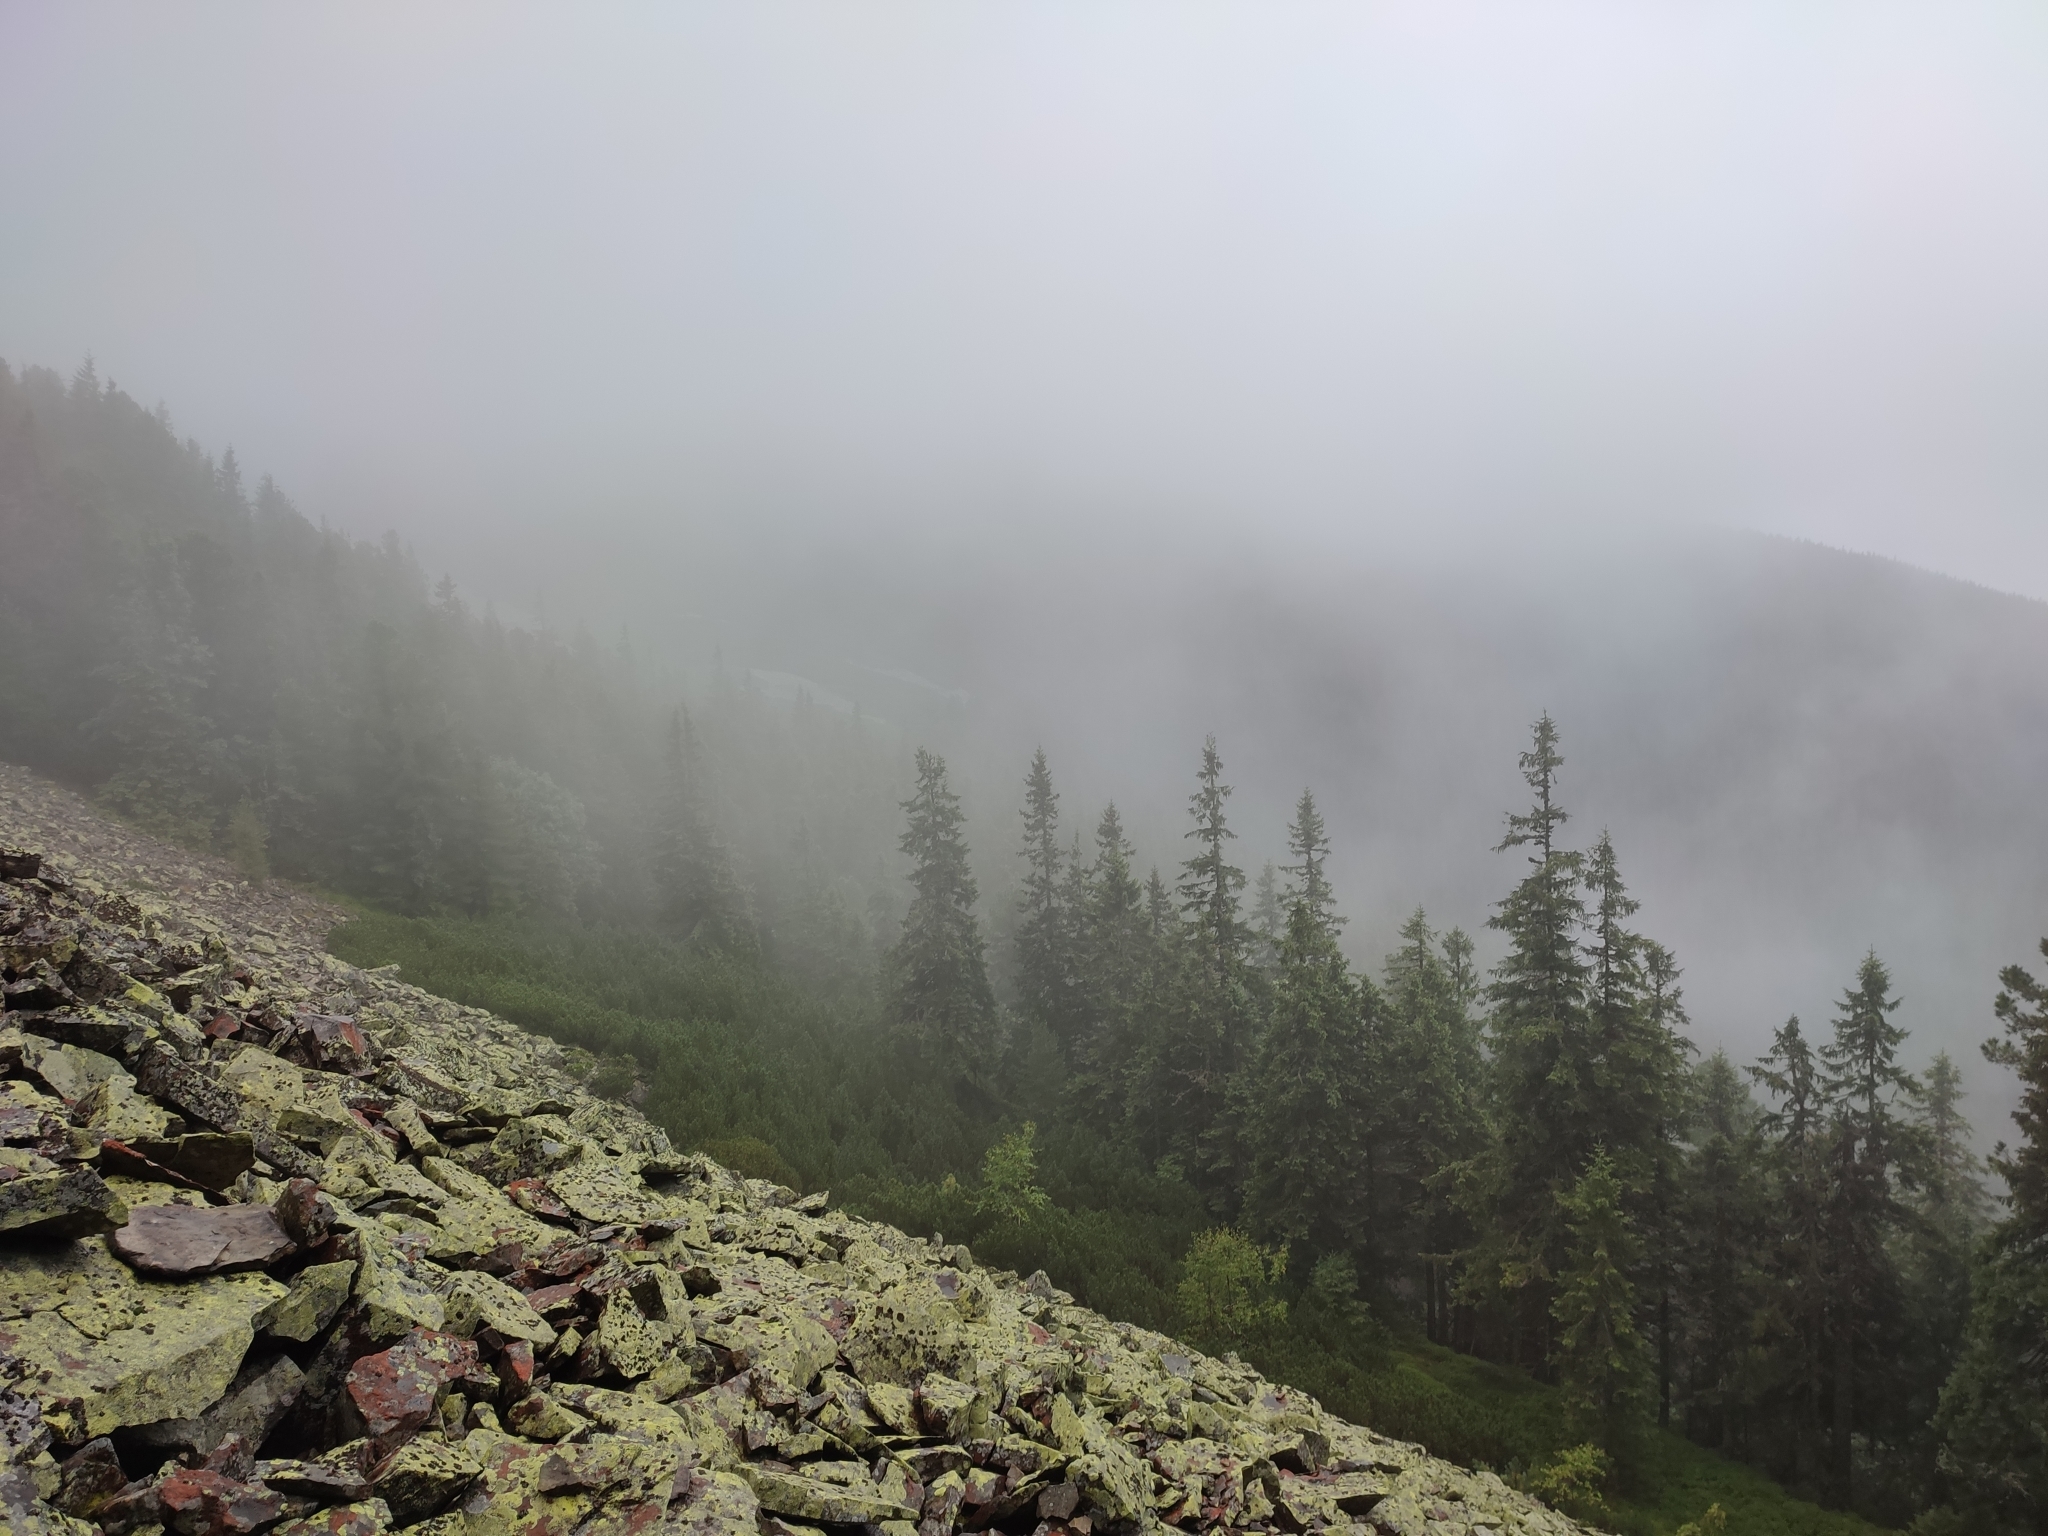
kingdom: Plantae
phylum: Tracheophyta
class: Pinopsida
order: Pinales
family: Pinaceae
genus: Picea
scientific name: Picea abies
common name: Norway spruce
